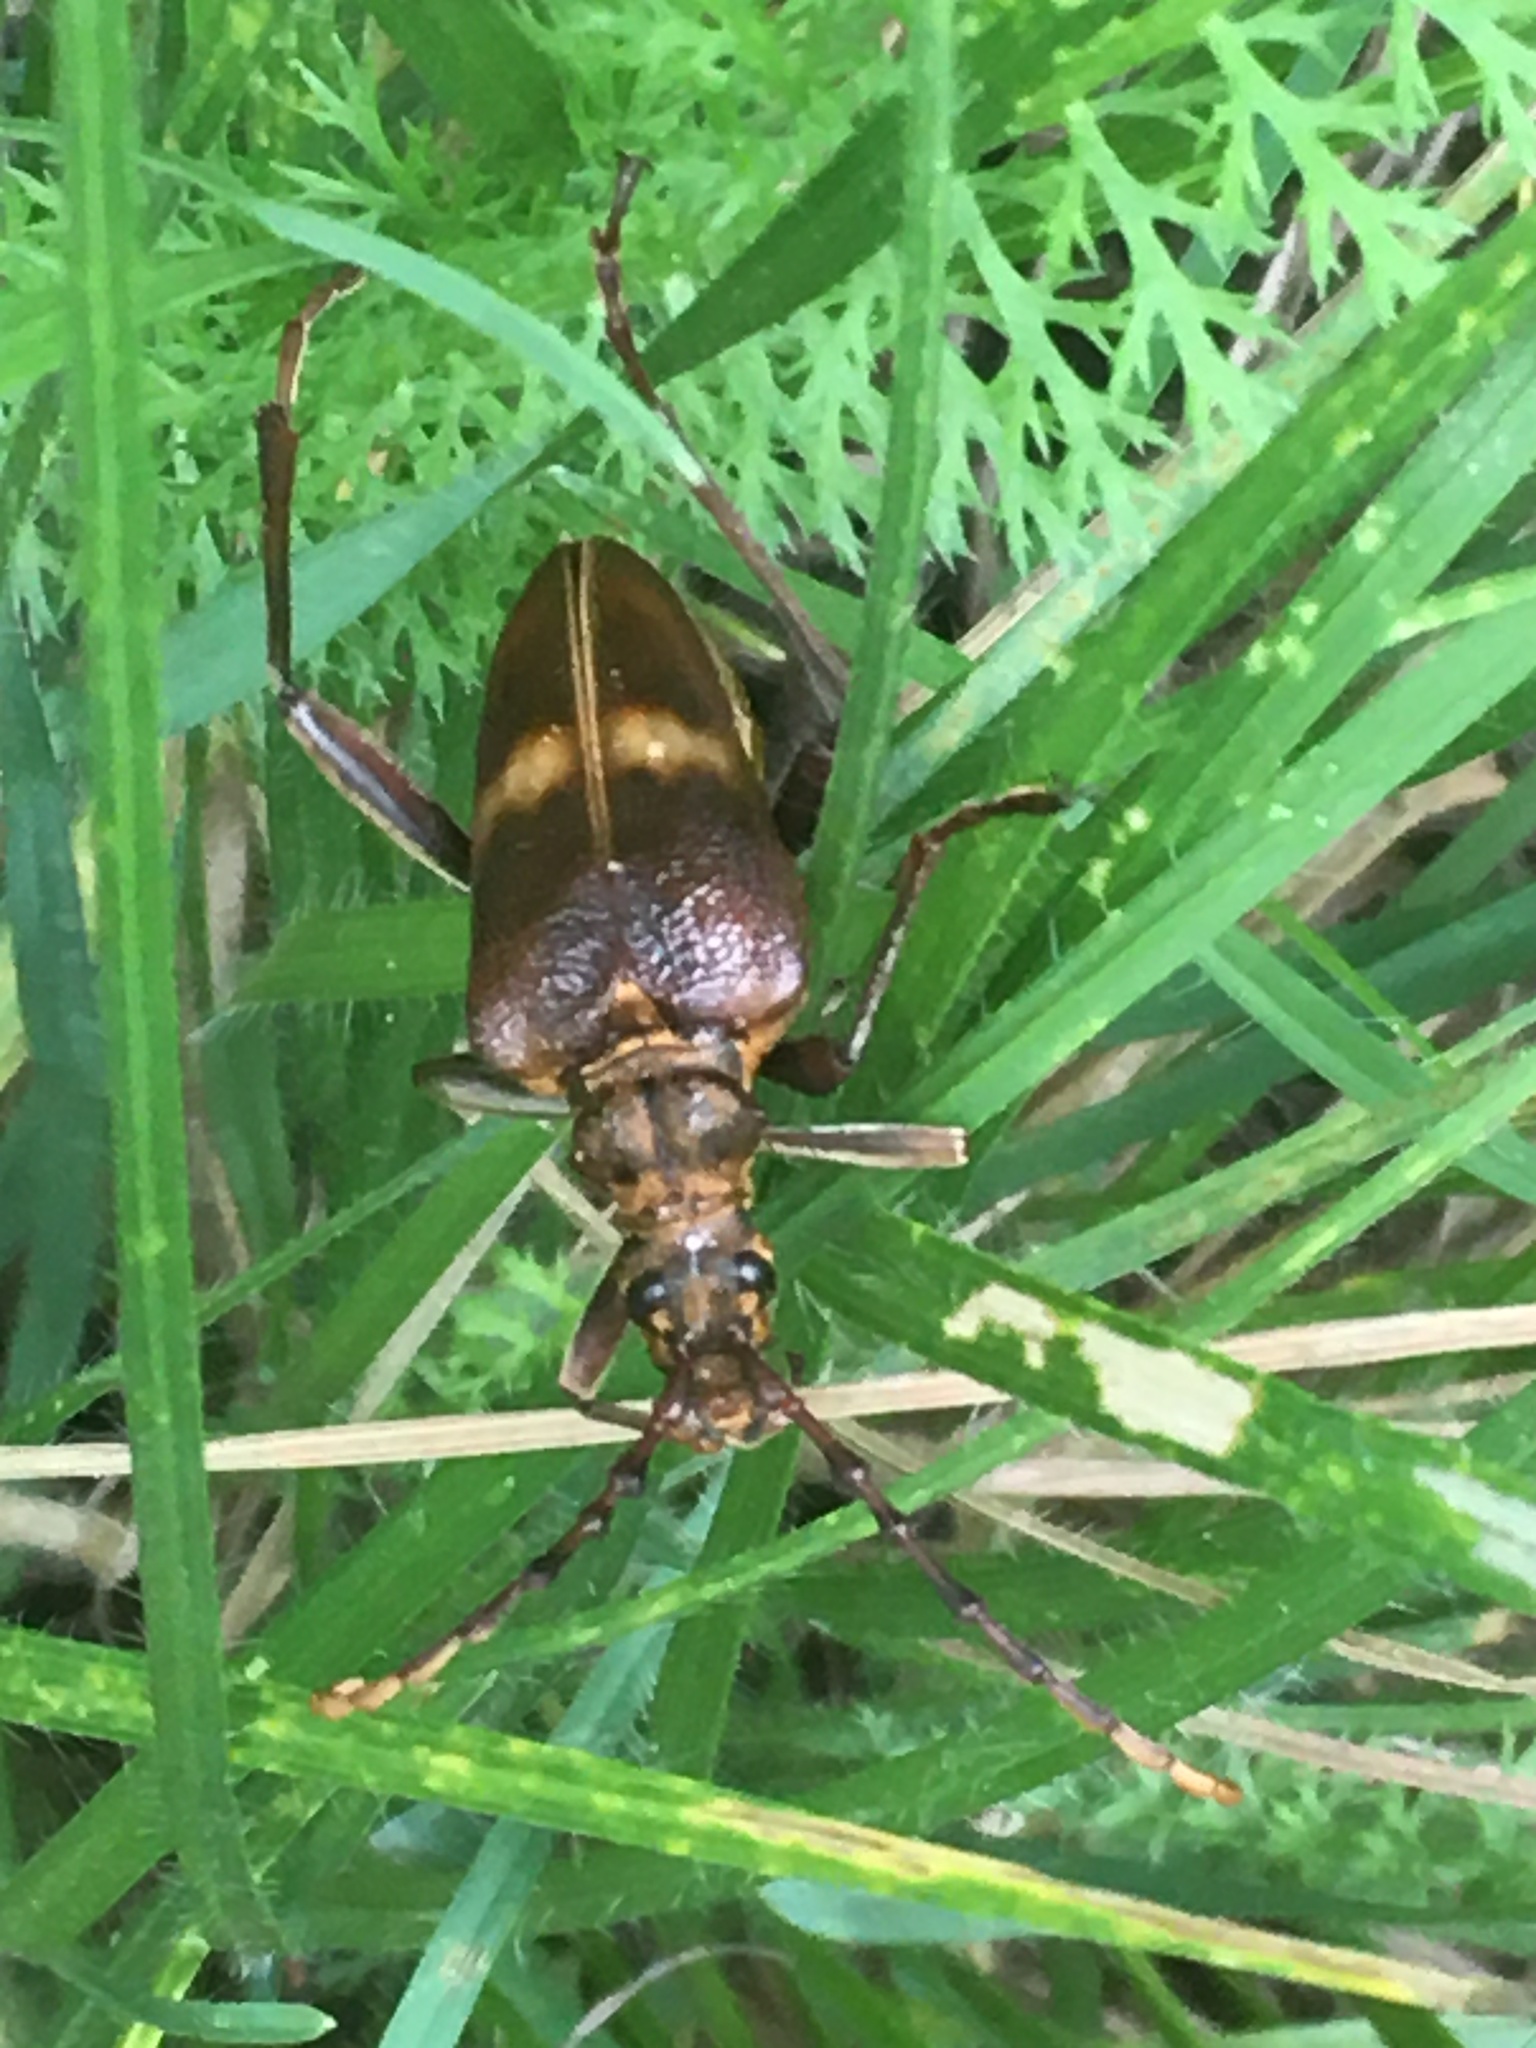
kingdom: Animalia
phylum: Arthropoda
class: Insecta
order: Coleoptera
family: Cerambycidae
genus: Akimerus
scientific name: Akimerus schaefferi
